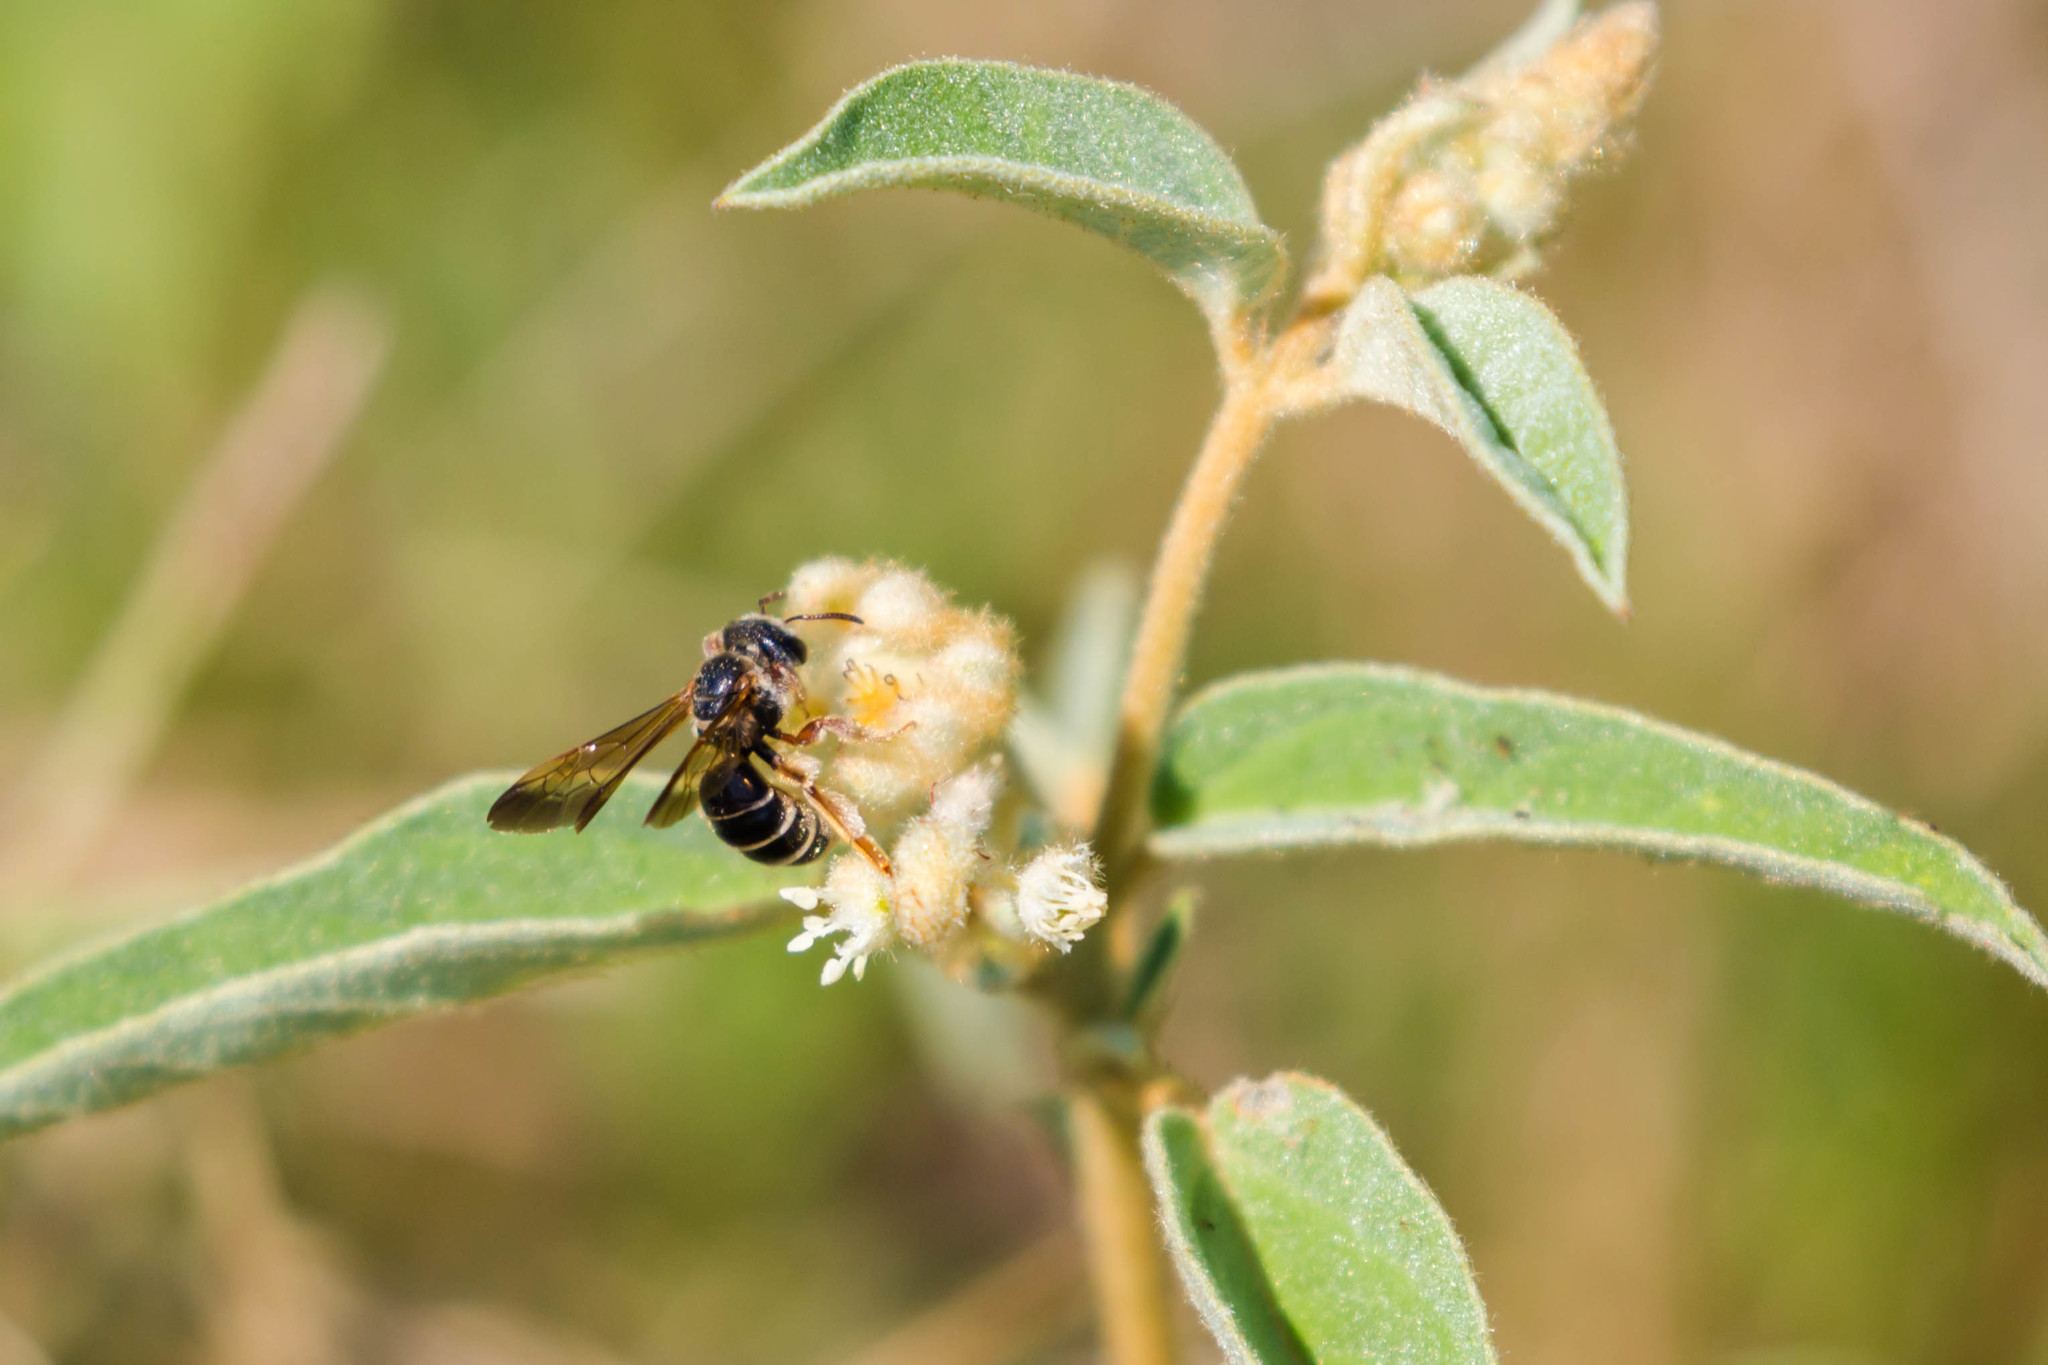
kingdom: Animalia
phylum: Arthropoda
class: Insecta
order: Hymenoptera
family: Halictidae
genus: Dieunomia
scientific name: Dieunomia nevadensis
